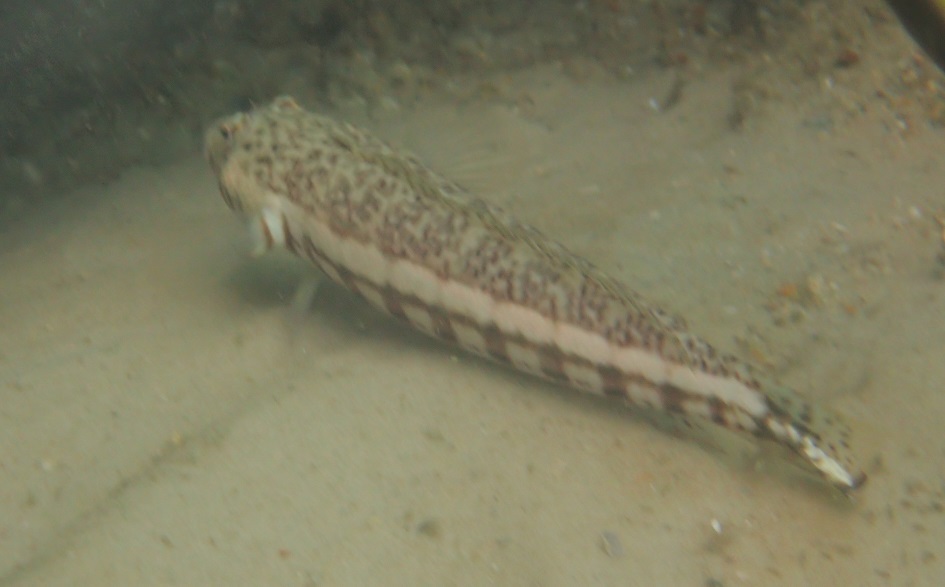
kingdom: Animalia
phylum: Chordata
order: Perciformes
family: Pinguipedidae
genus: Parapercis
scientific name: Parapercis stricticeps
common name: White-streaked grubfish
